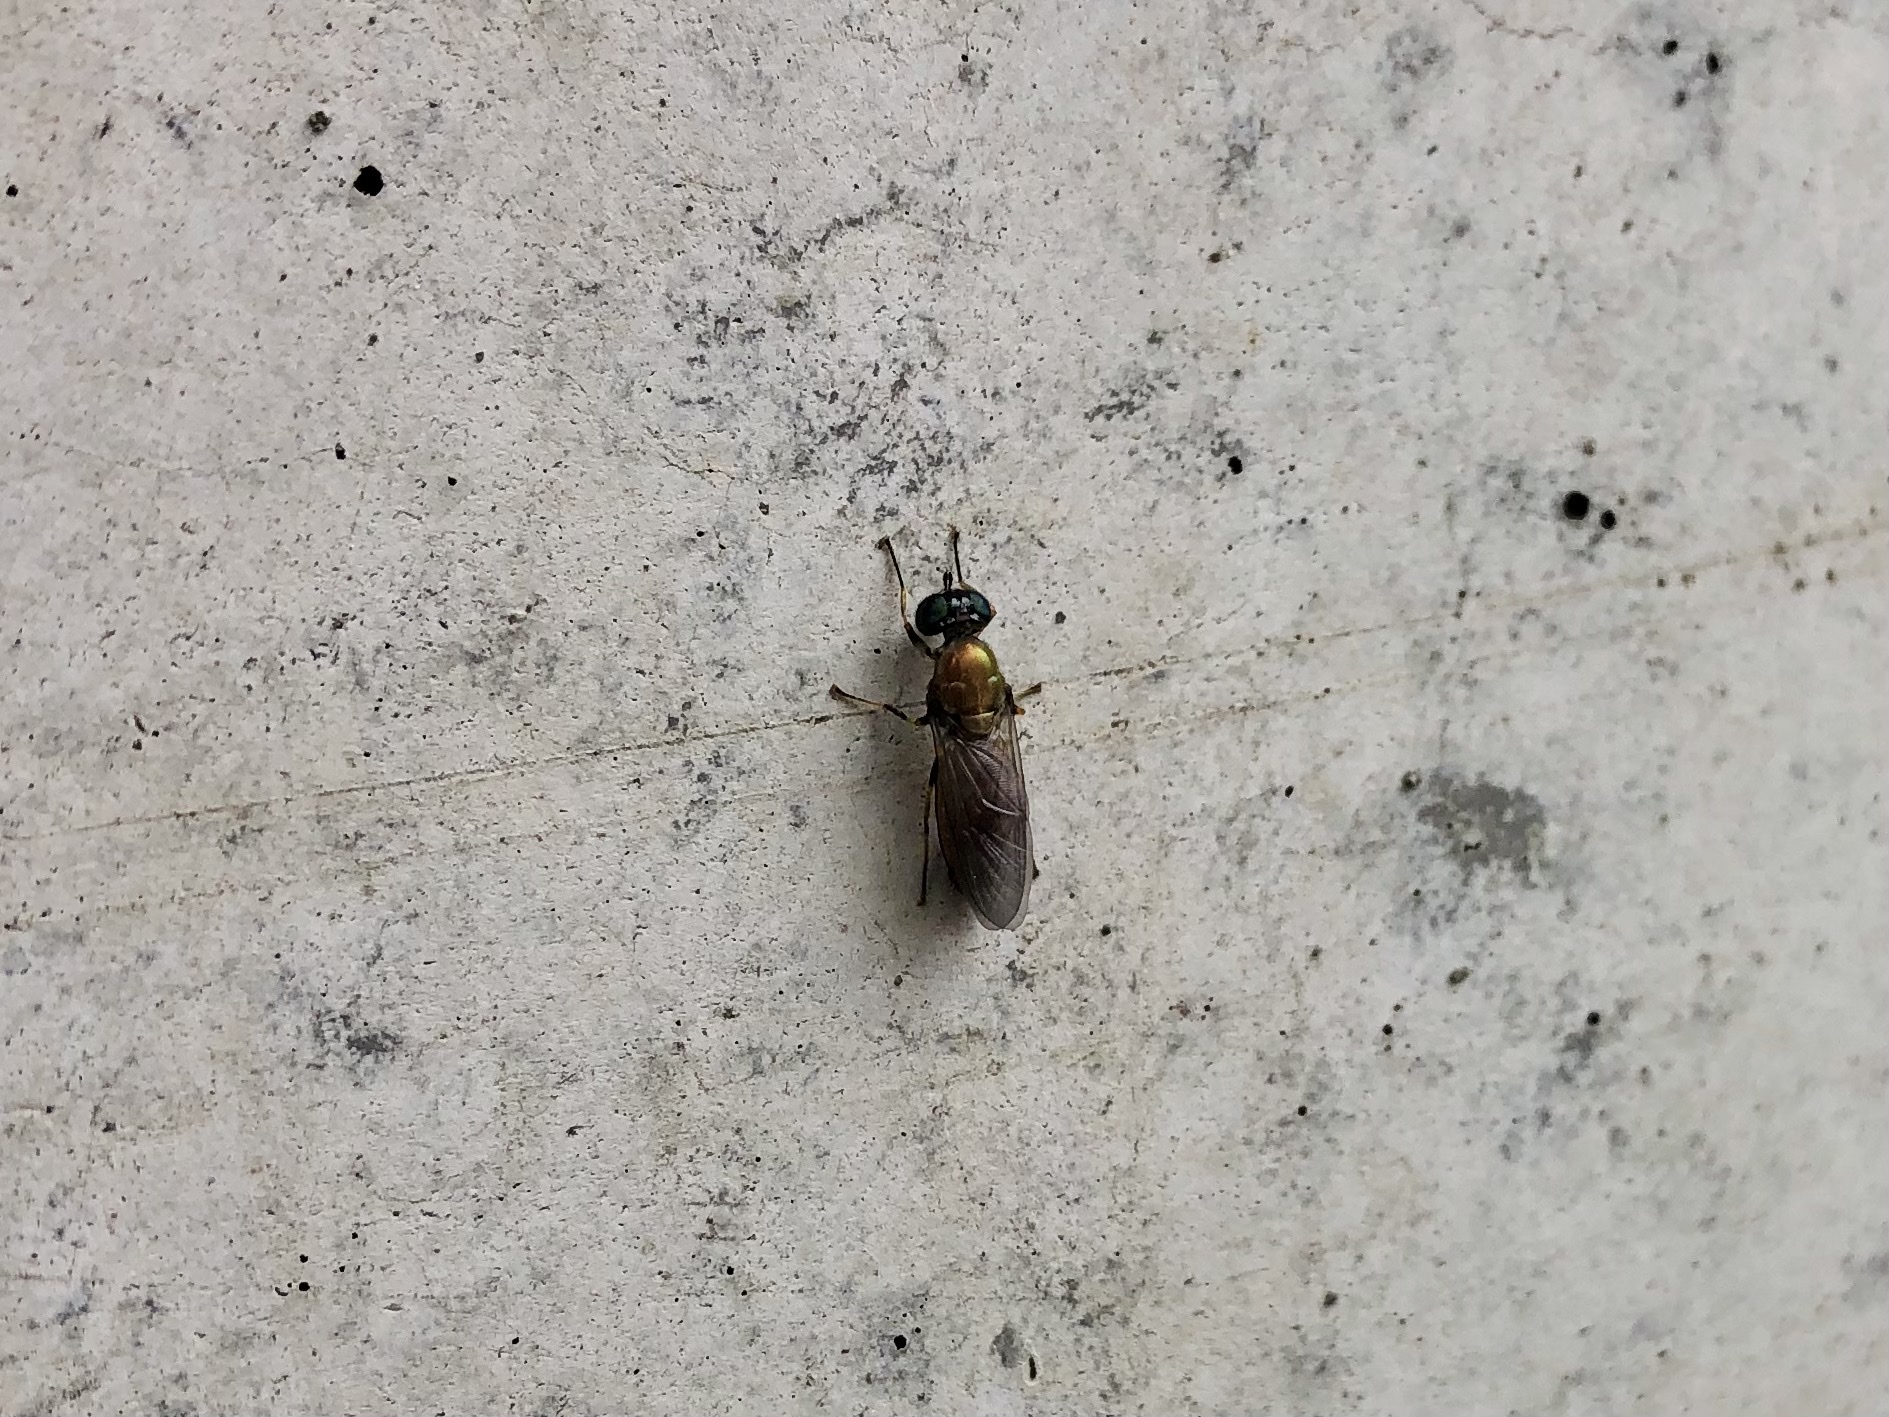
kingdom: Animalia
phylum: Arthropoda
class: Insecta
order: Diptera
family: Stratiomyidae
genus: Chloromyia
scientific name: Chloromyia formosa
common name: Soldier fly
